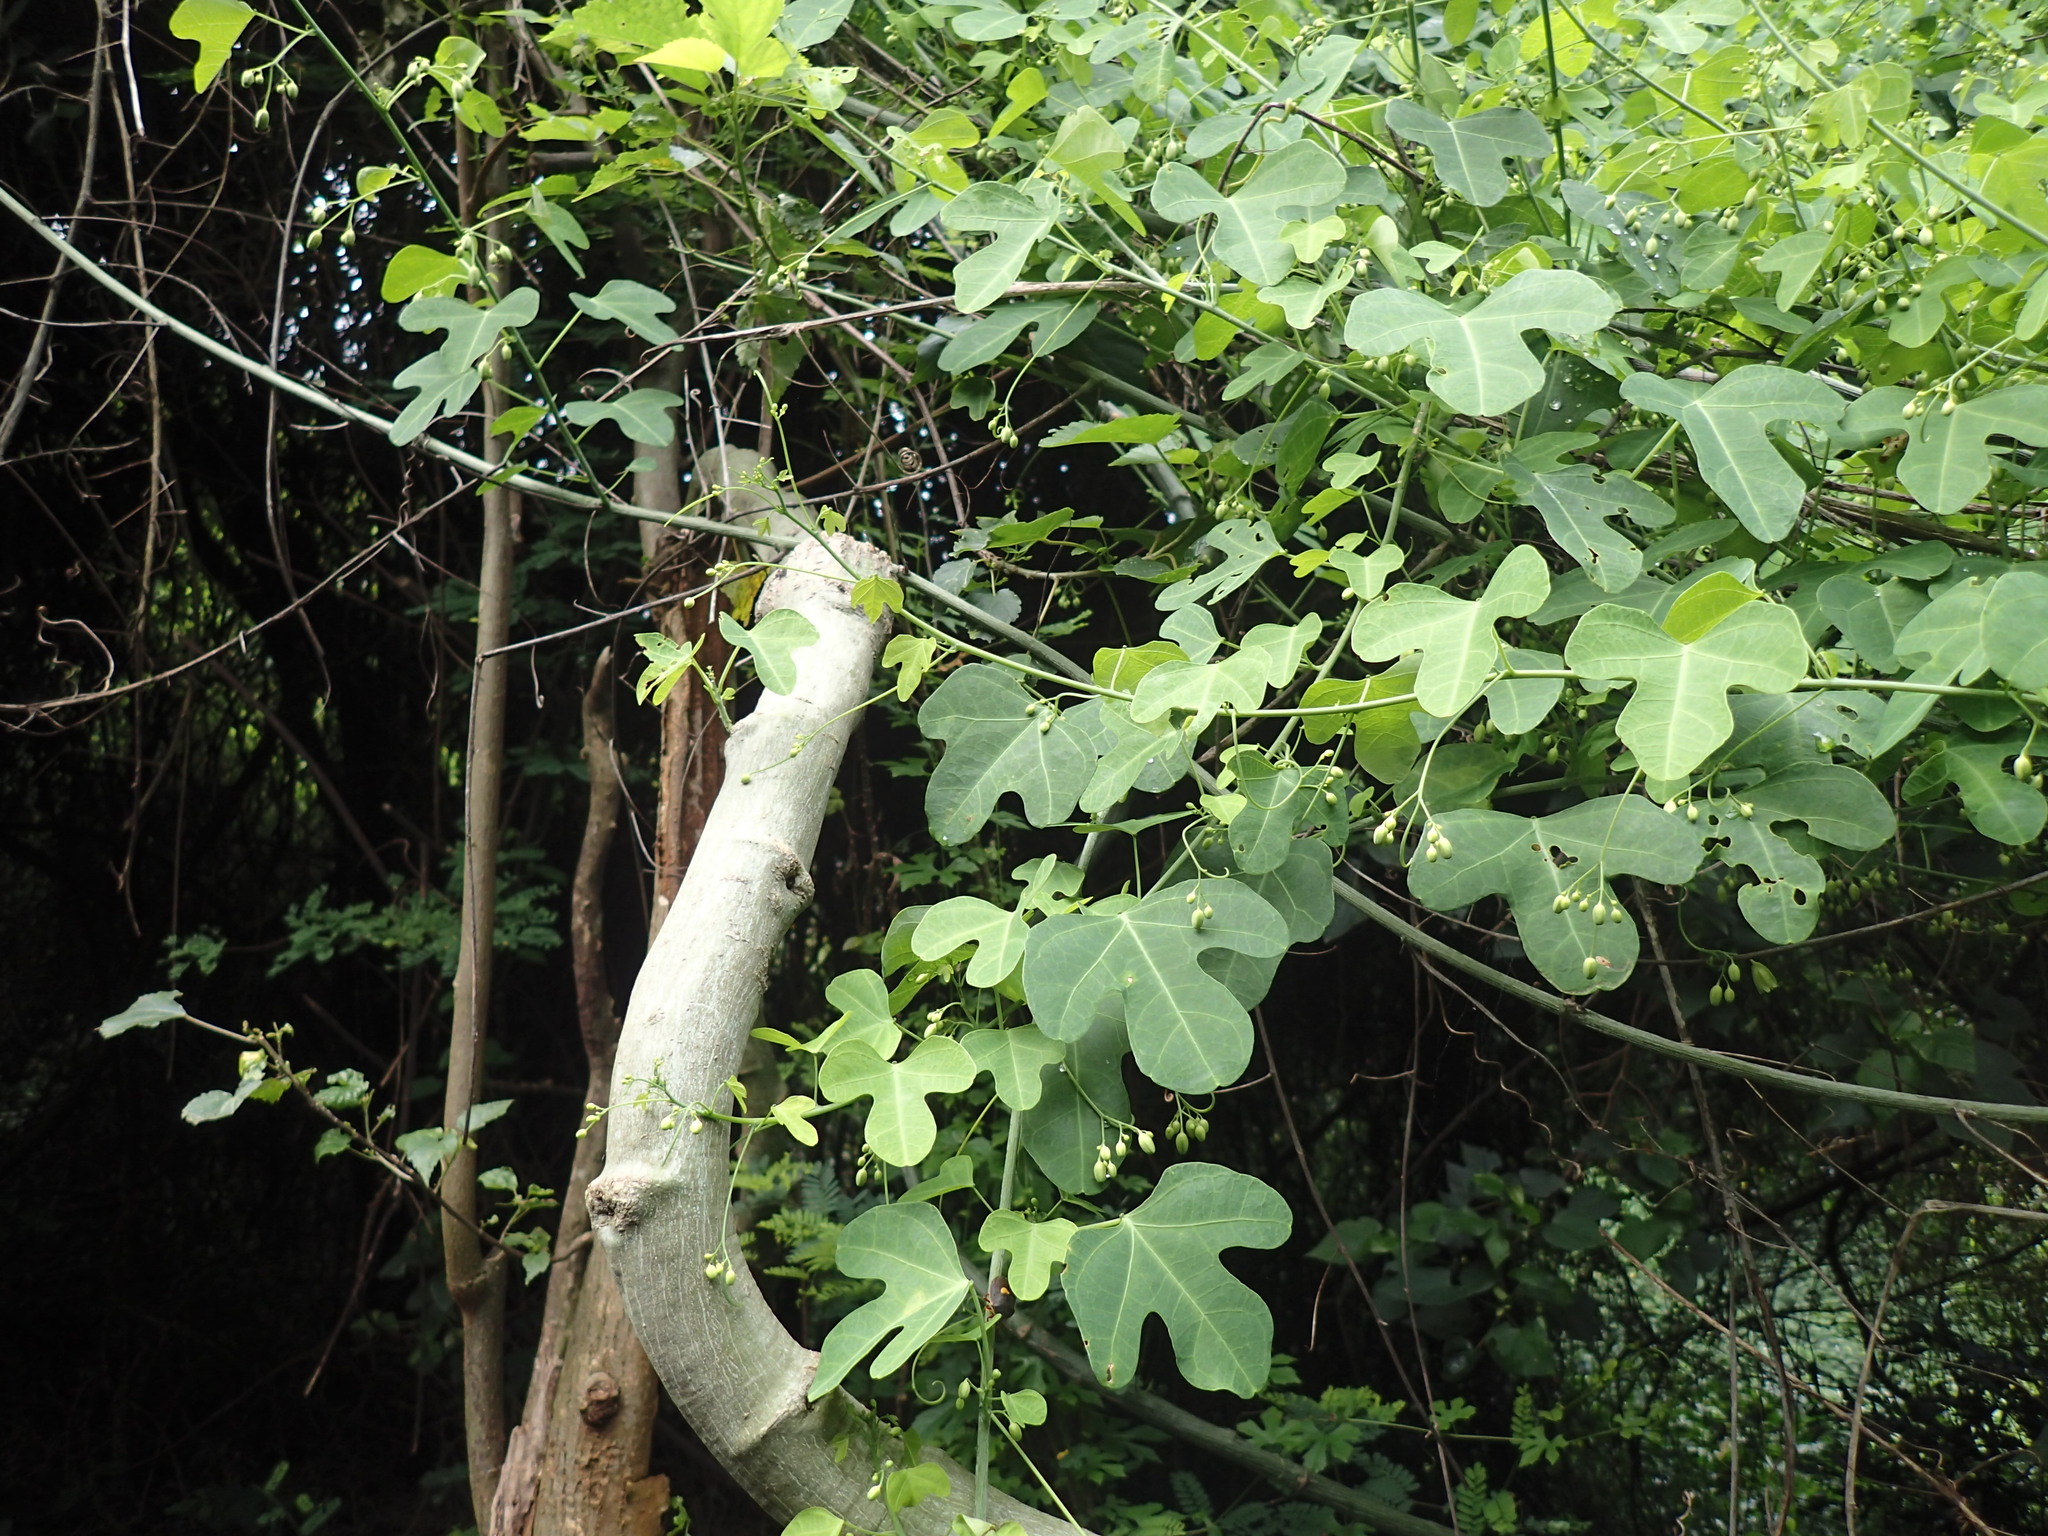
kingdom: Plantae
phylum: Tracheophyta
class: Magnoliopsida
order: Malpighiales
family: Passifloraceae
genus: Adenia
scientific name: Adenia cissampeloides
